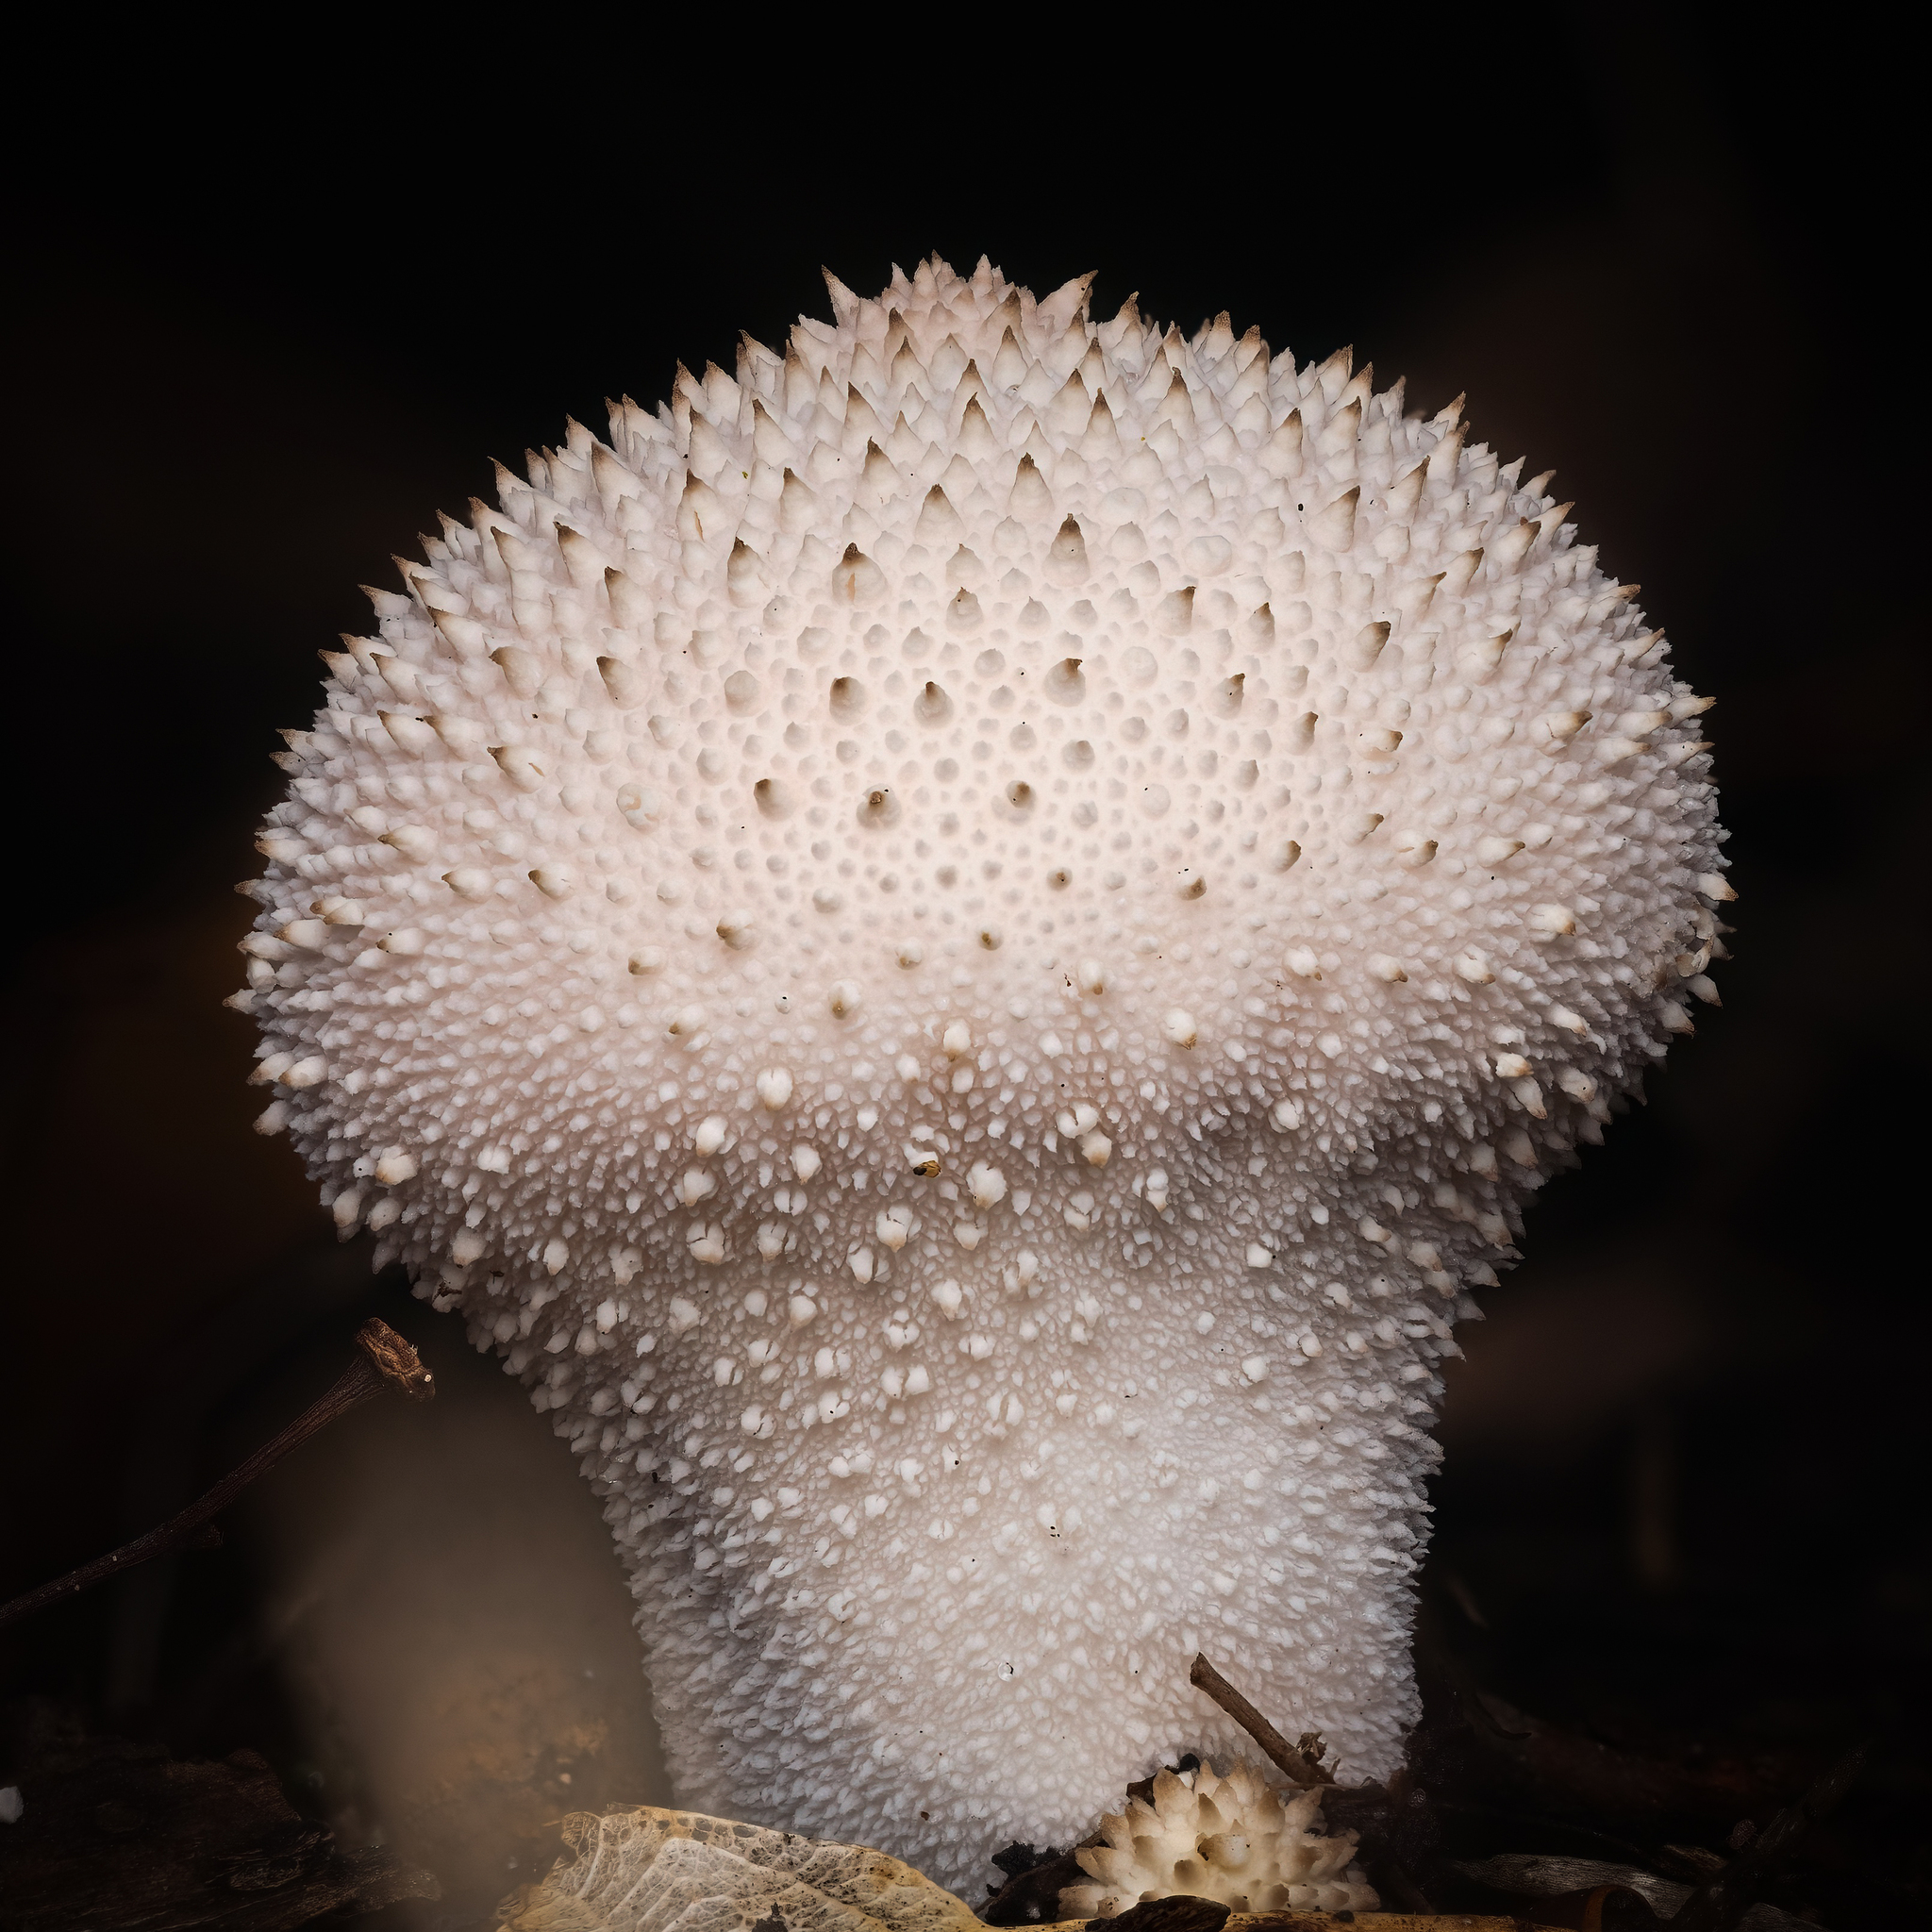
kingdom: Fungi
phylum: Basidiomycota
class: Agaricomycetes
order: Agaricales
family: Lycoperdaceae
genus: Lycoperdon
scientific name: Lycoperdon perlatum
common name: Common puffball
